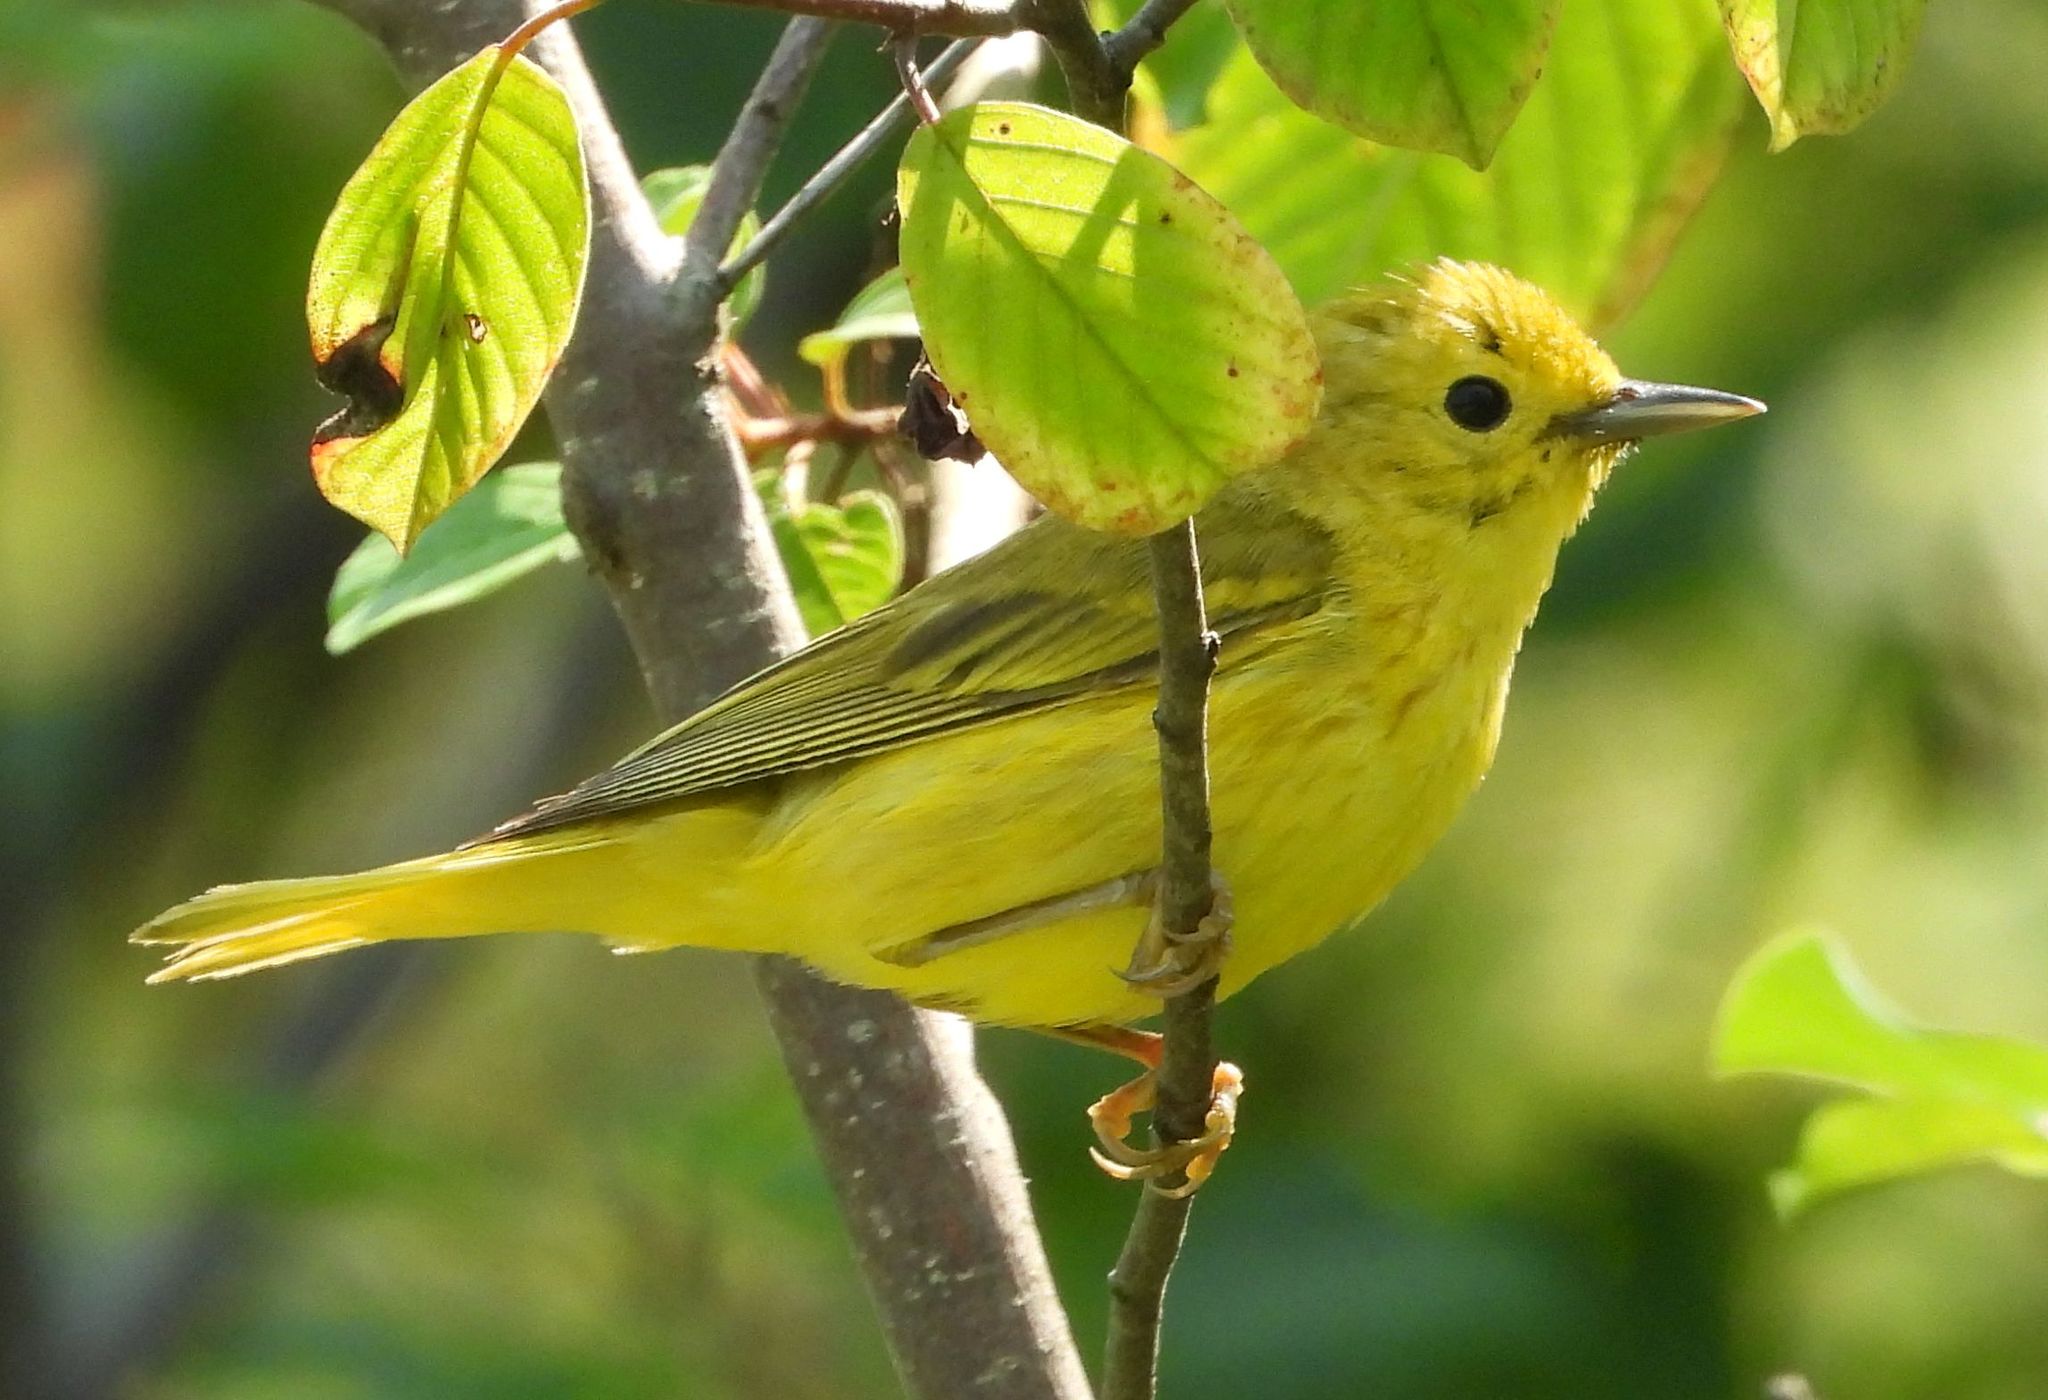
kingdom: Animalia
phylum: Chordata
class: Aves
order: Passeriformes
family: Parulidae
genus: Setophaga
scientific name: Setophaga petechia
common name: Yellow warbler
